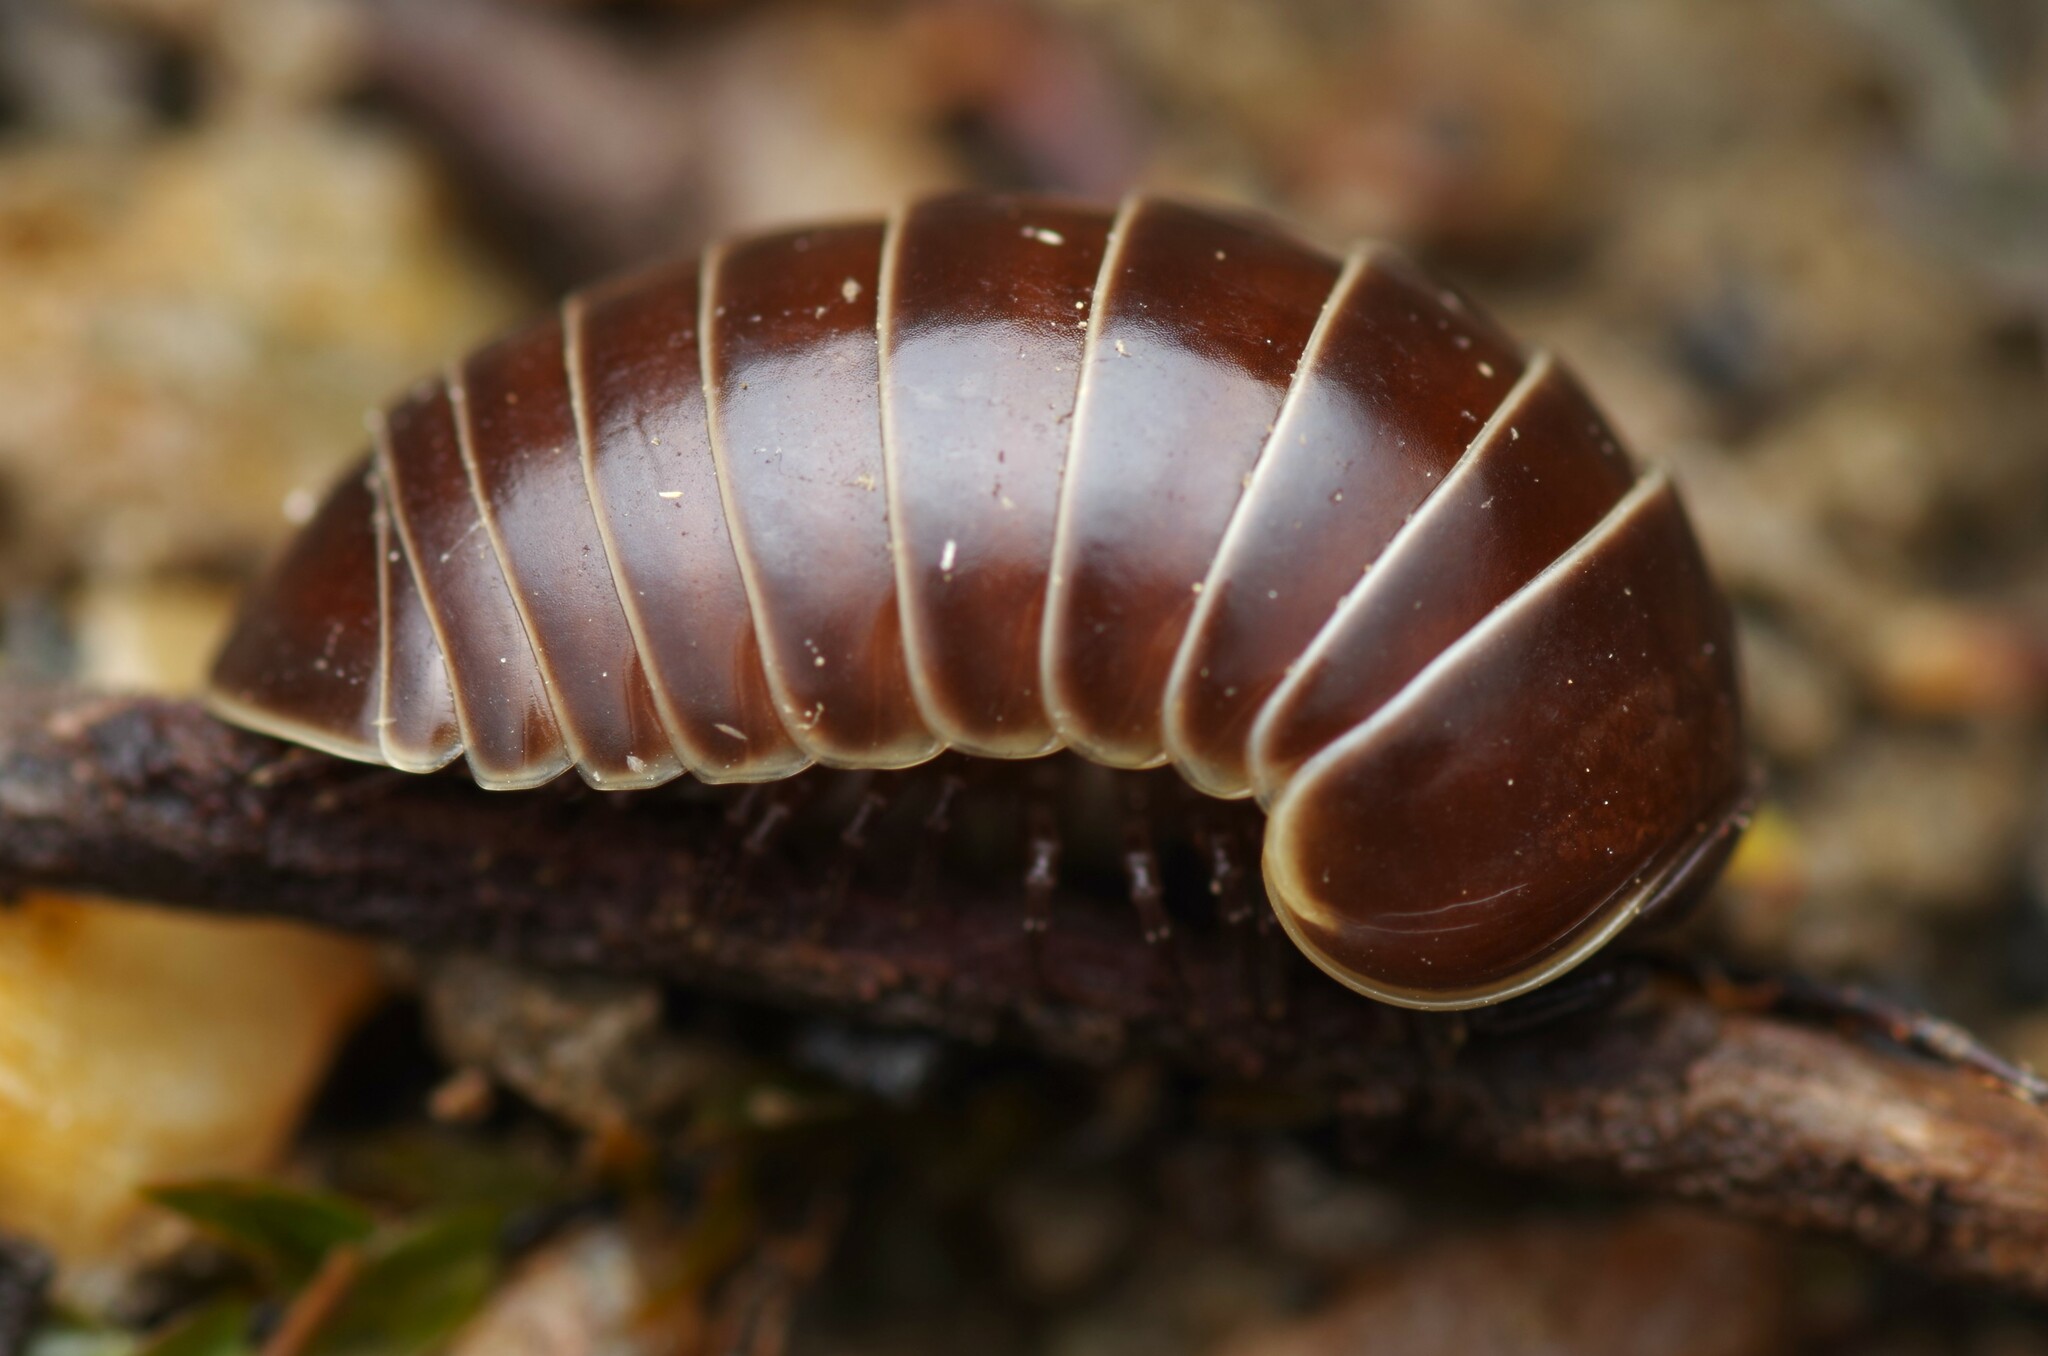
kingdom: Animalia
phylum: Arthropoda
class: Diplopoda
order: Glomerida
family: Glomeridae
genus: Glomeris
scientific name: Glomeris marginata
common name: Bordered pill millipede
